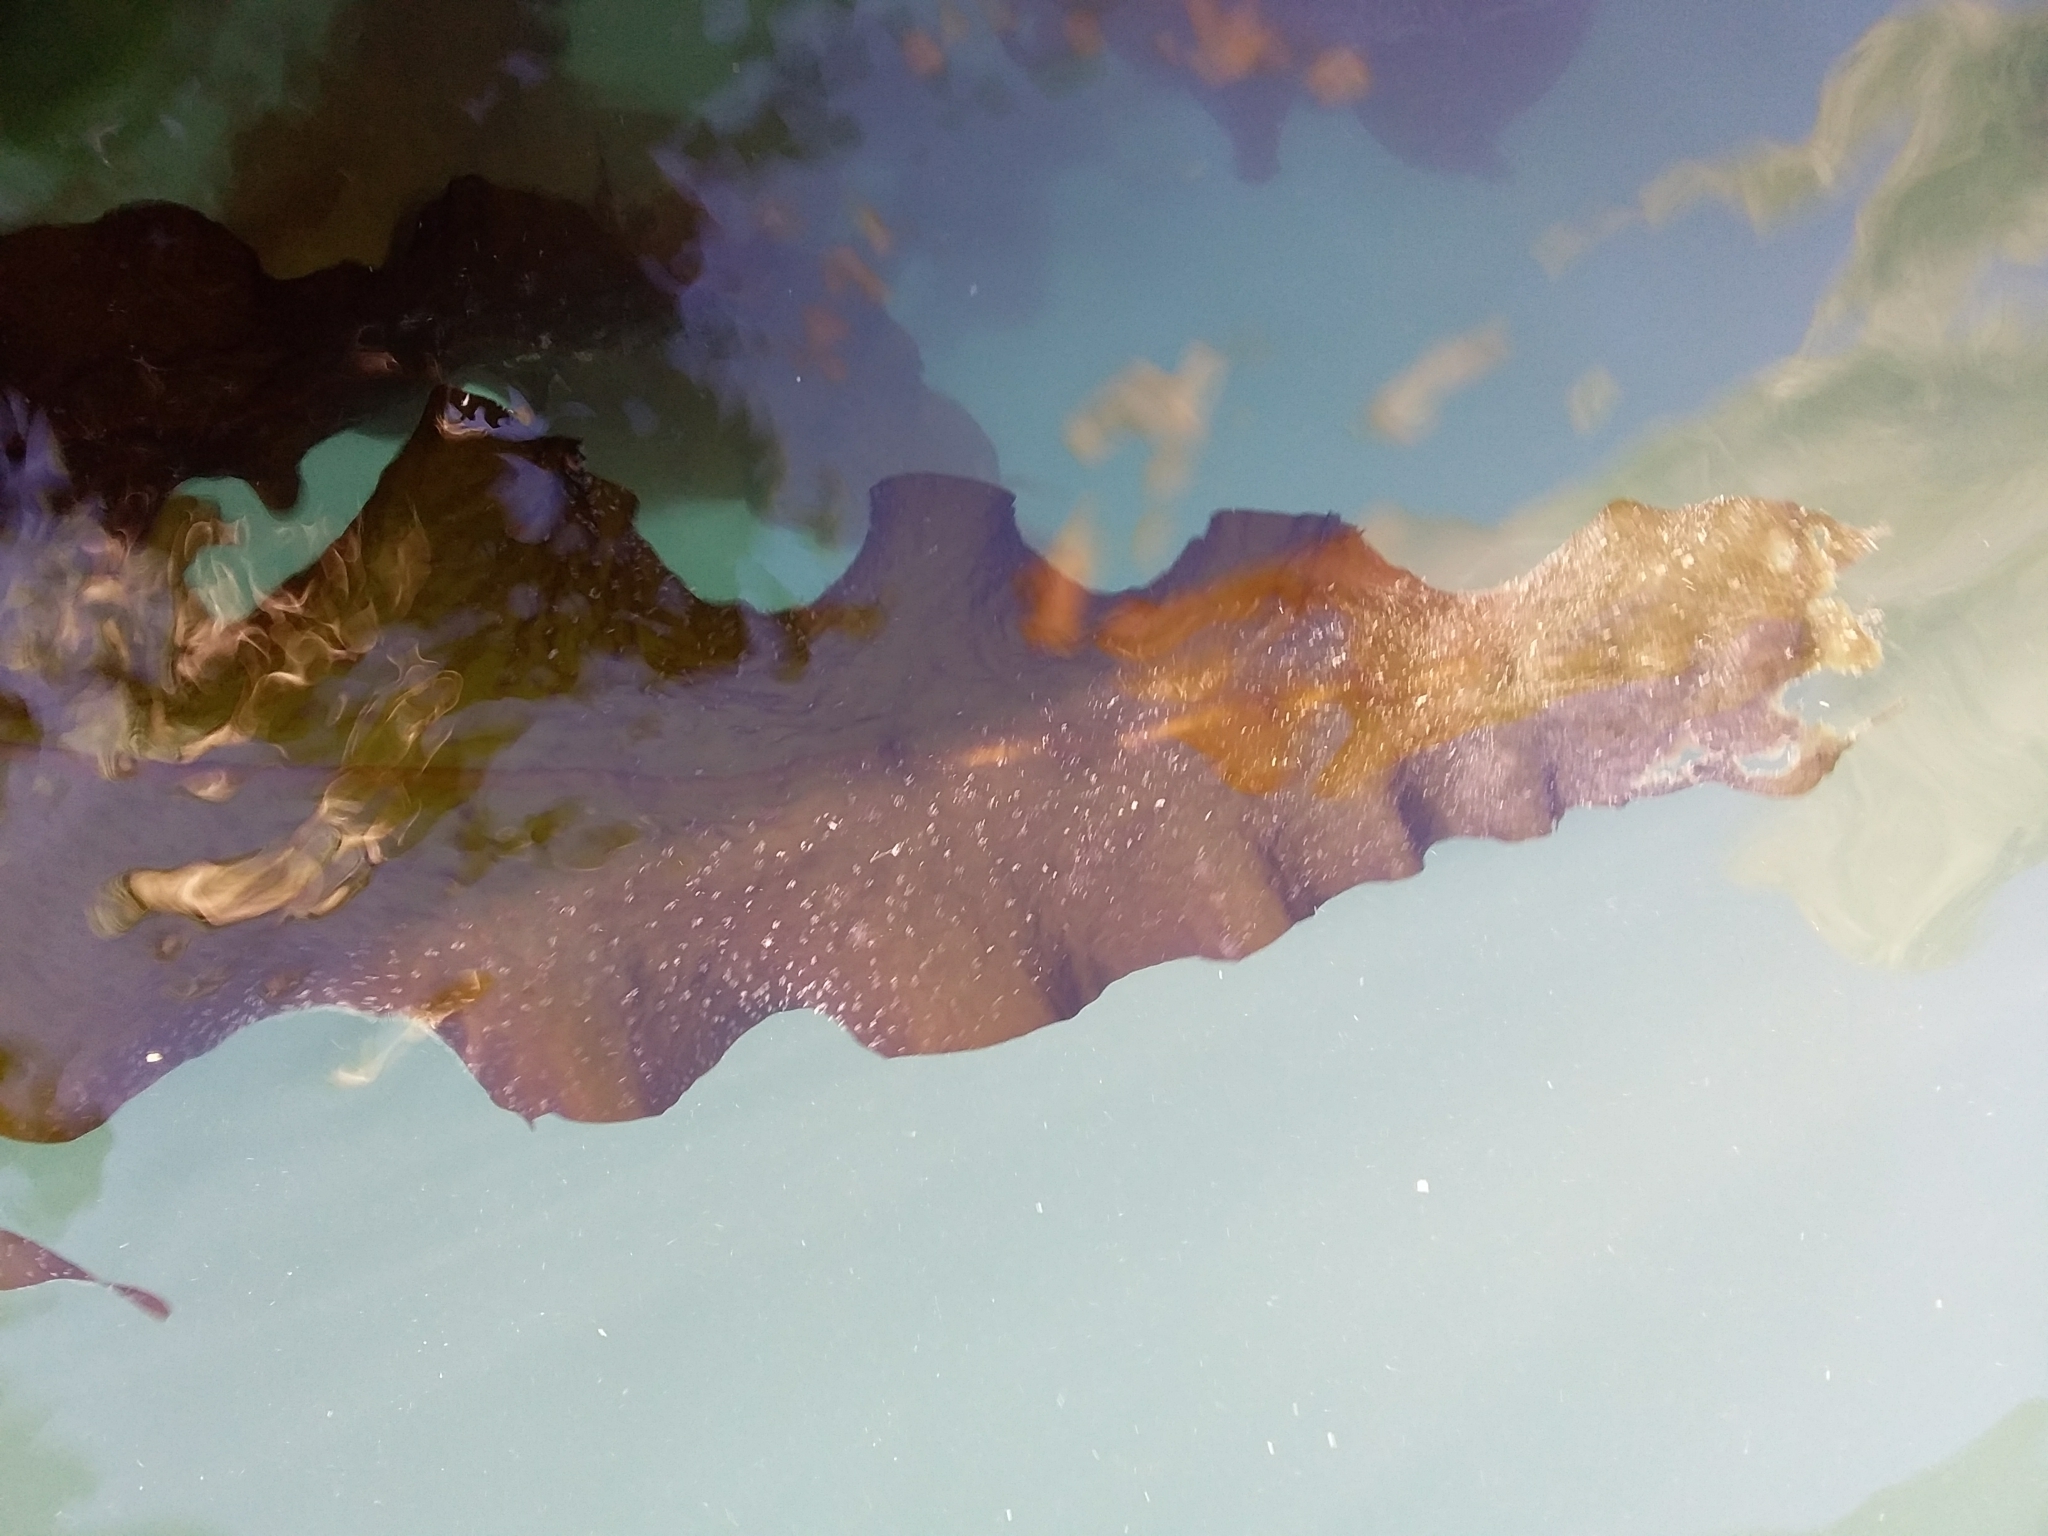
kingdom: Chromista
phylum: Ochrophyta
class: Phaeophyceae
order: Laminariales
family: Alariaceae
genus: Undaria
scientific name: Undaria pinnatifida
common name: Asian kelp
